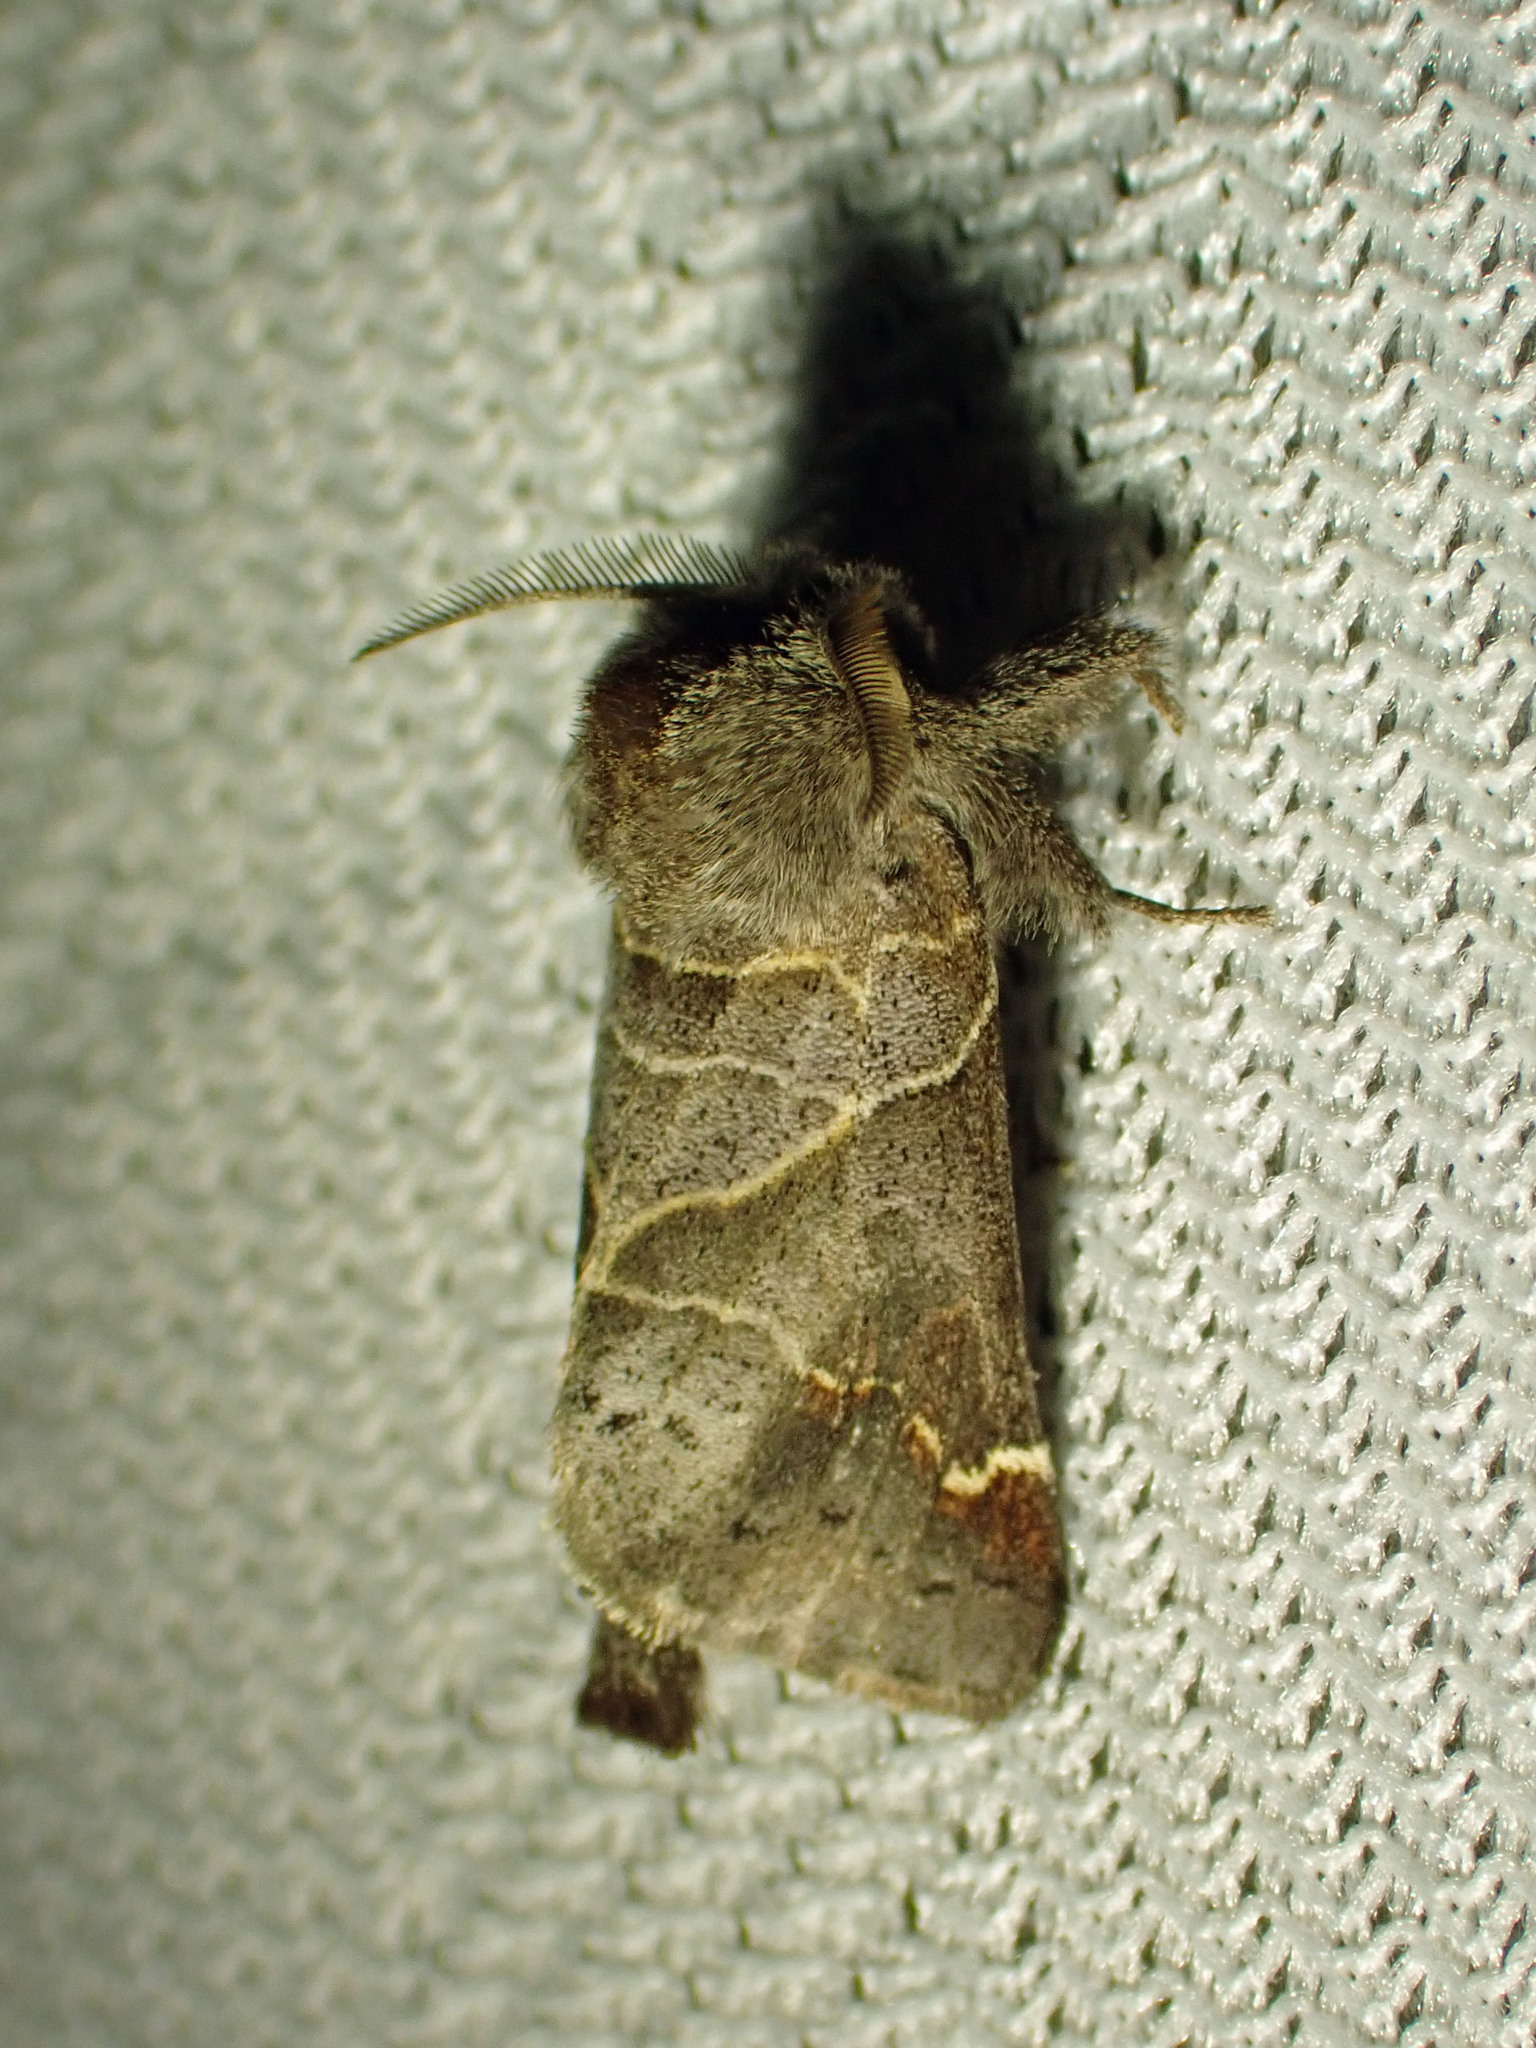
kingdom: Animalia
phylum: Arthropoda
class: Insecta
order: Lepidoptera
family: Notodontidae
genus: Clostera
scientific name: Clostera apicalis
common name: Apical prominent
